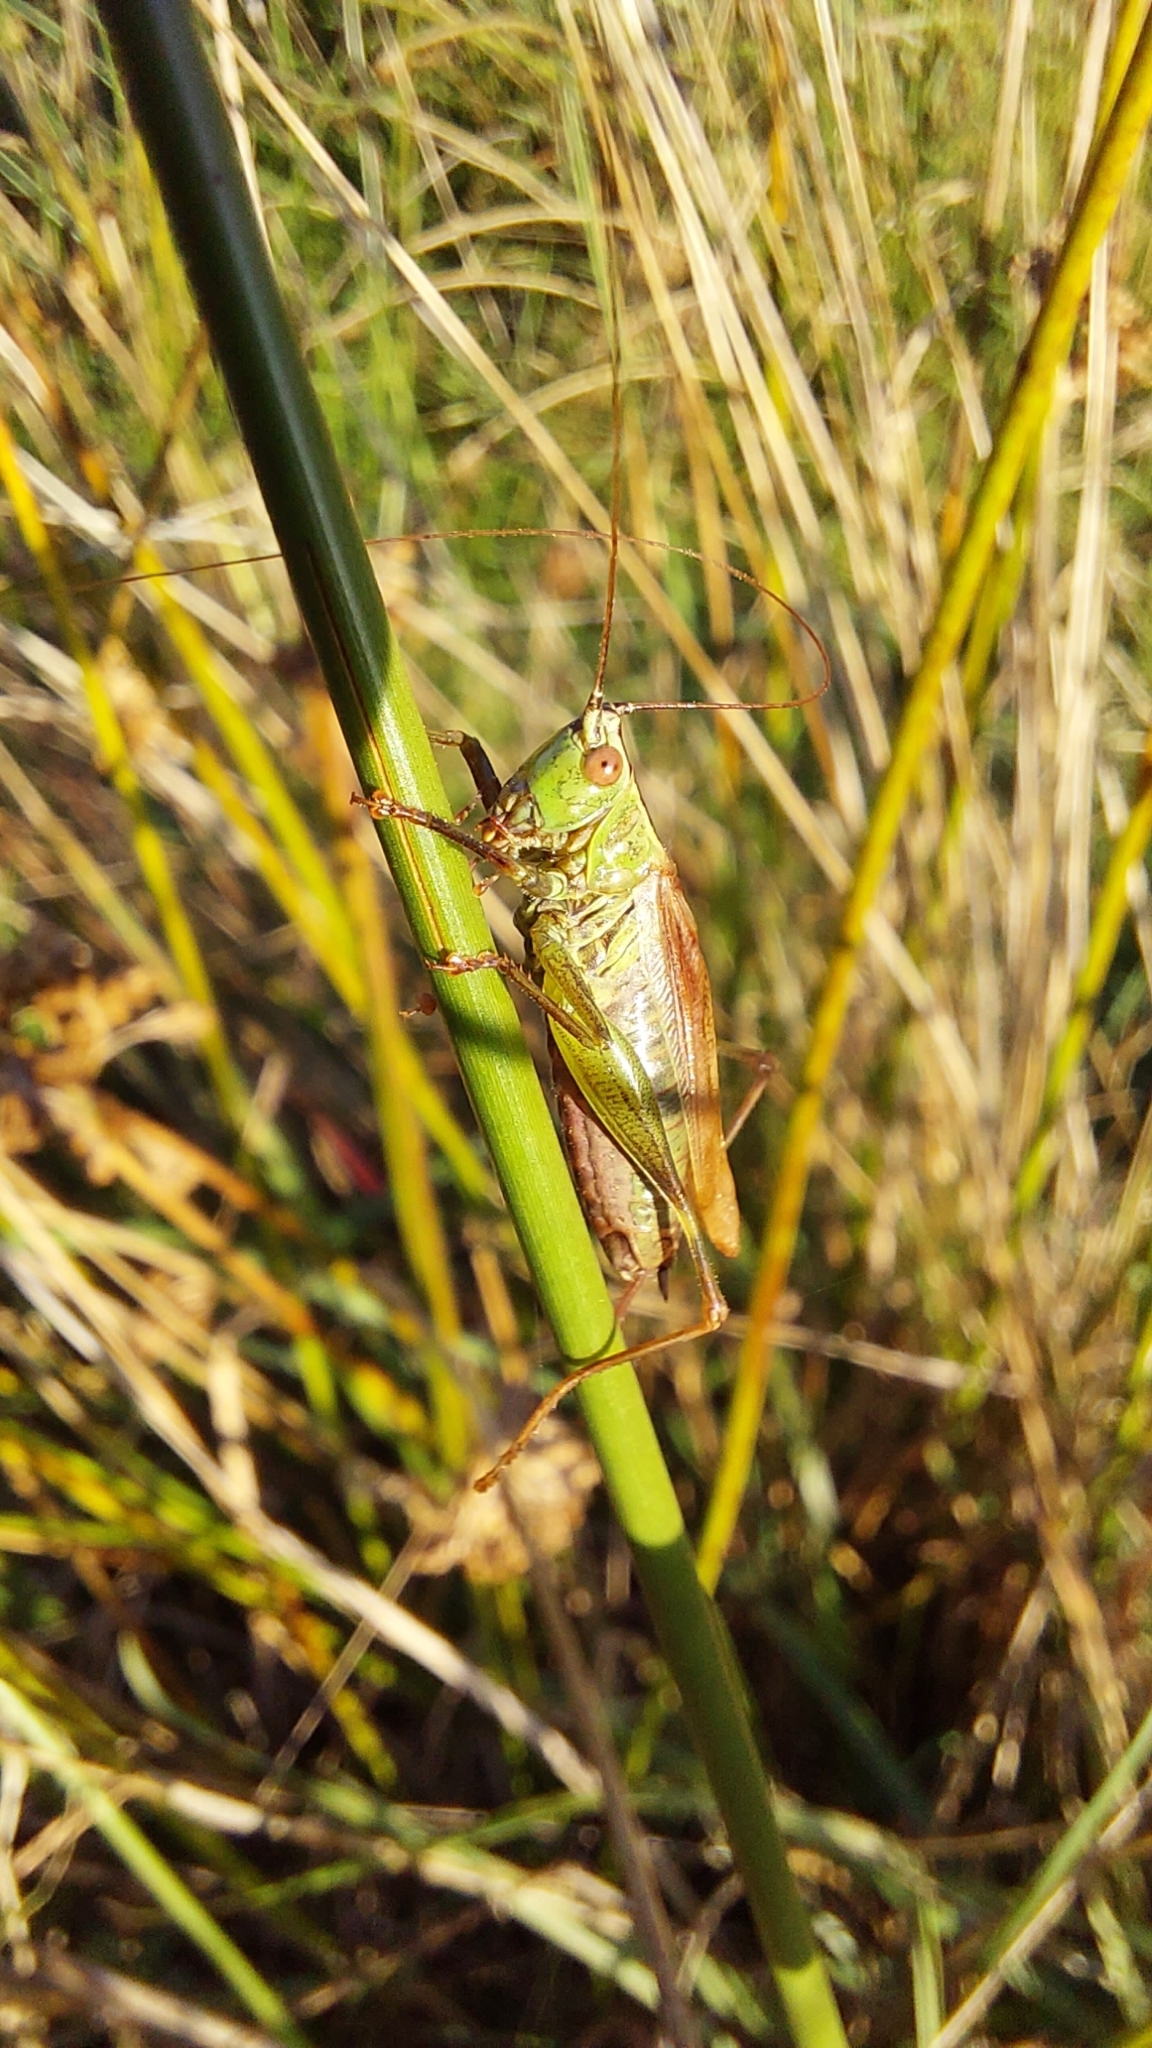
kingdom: Animalia
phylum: Arthropoda
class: Insecta
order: Orthoptera
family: Tettigoniidae
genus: Conocephalus
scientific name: Conocephalus fuscus
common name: Long-winged conehead
